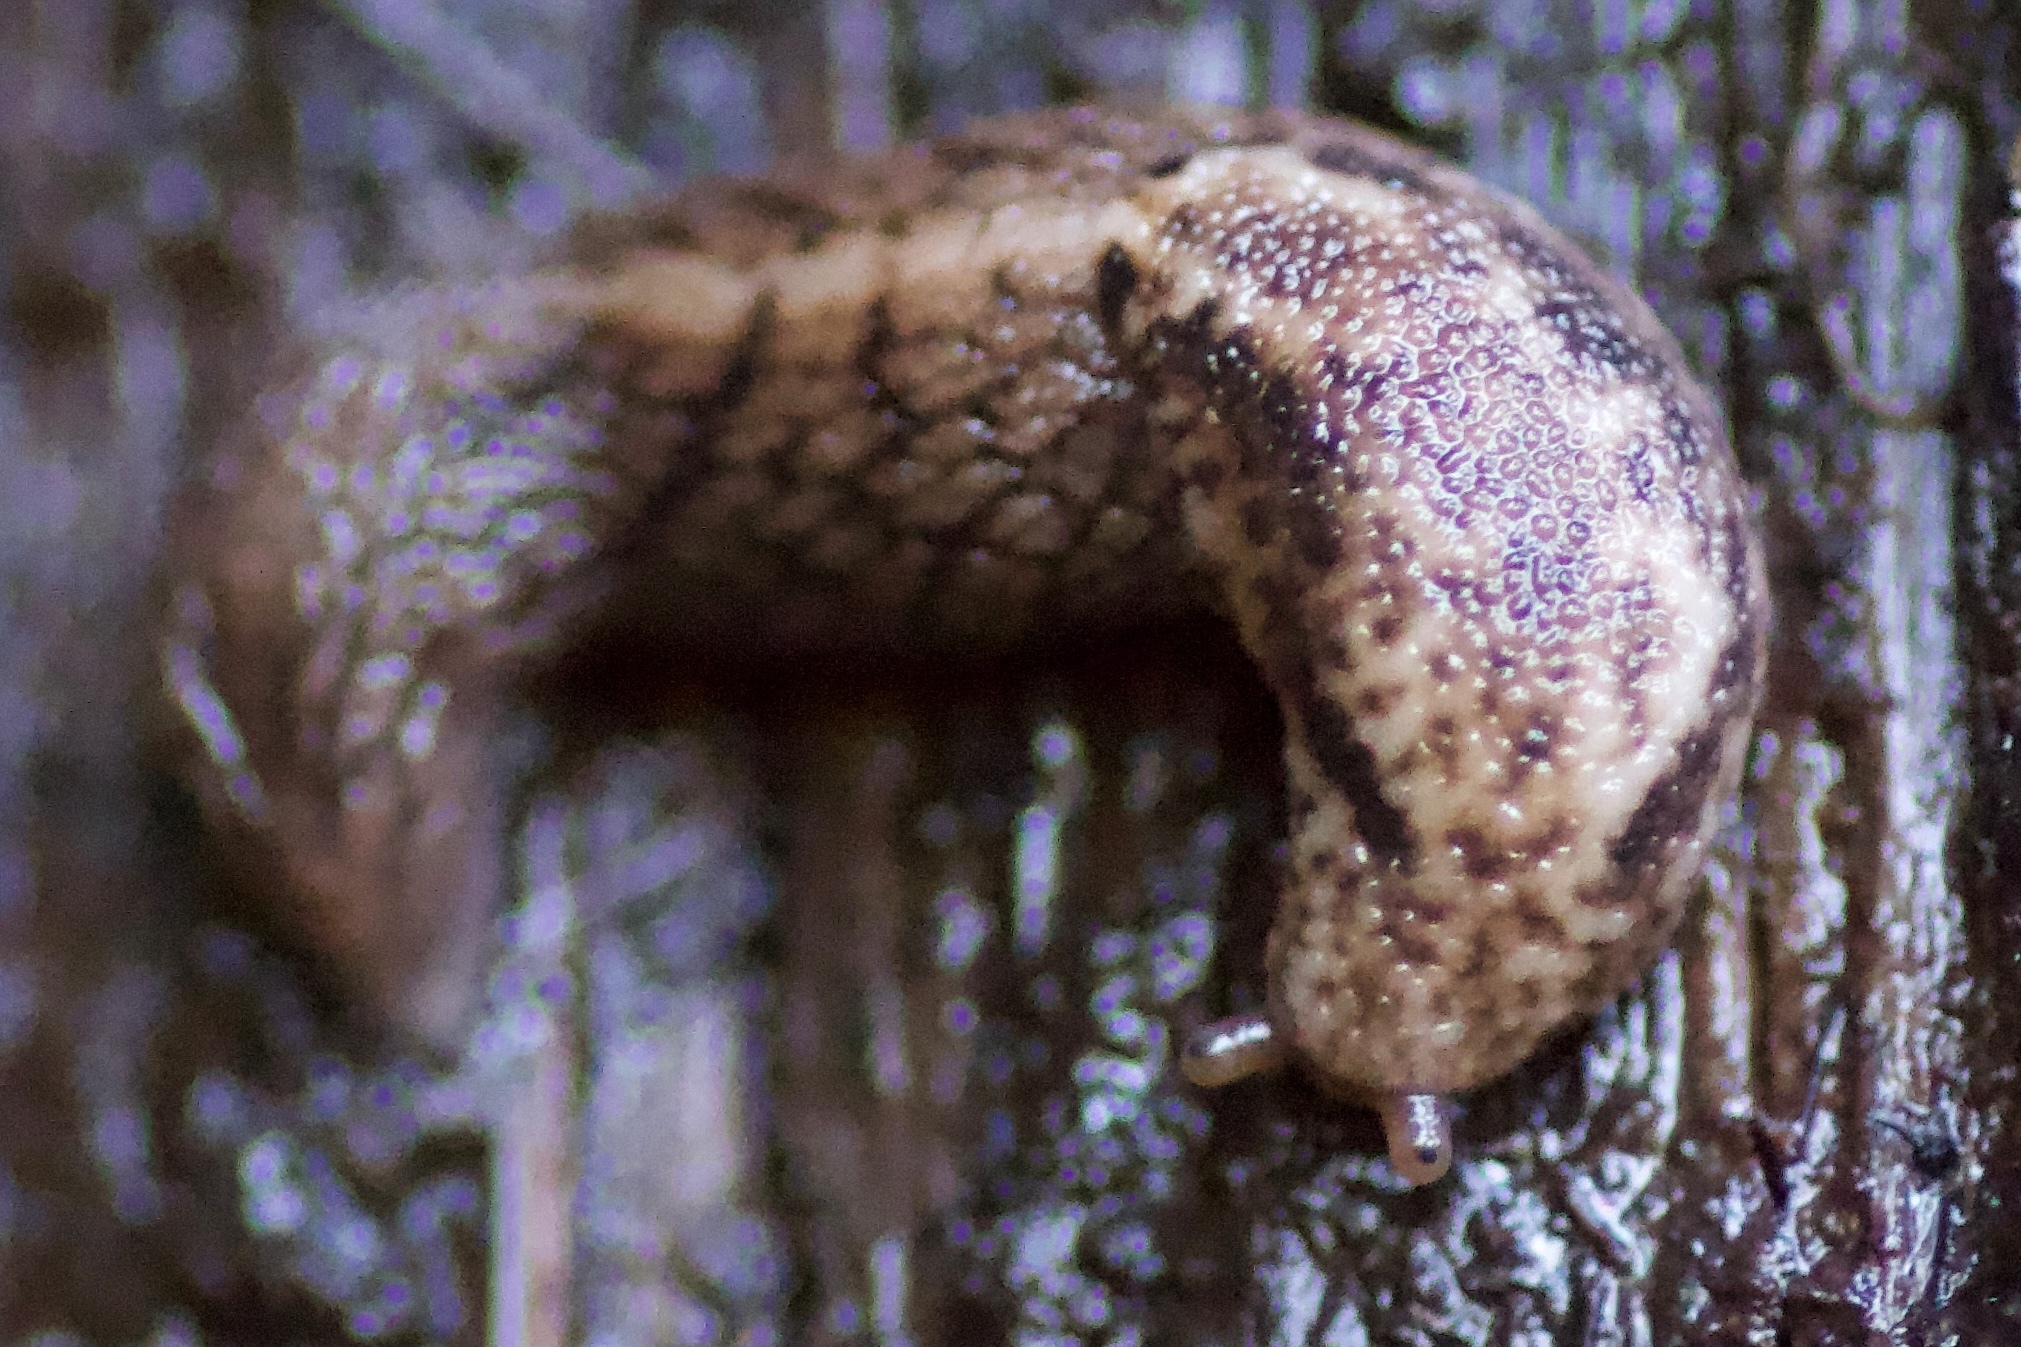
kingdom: Animalia
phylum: Mollusca
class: Gastropoda
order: Stylommatophora
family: Ariolimacidae
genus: Prophysaon
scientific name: Prophysaon andersonii
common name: Reticulate taildropper
